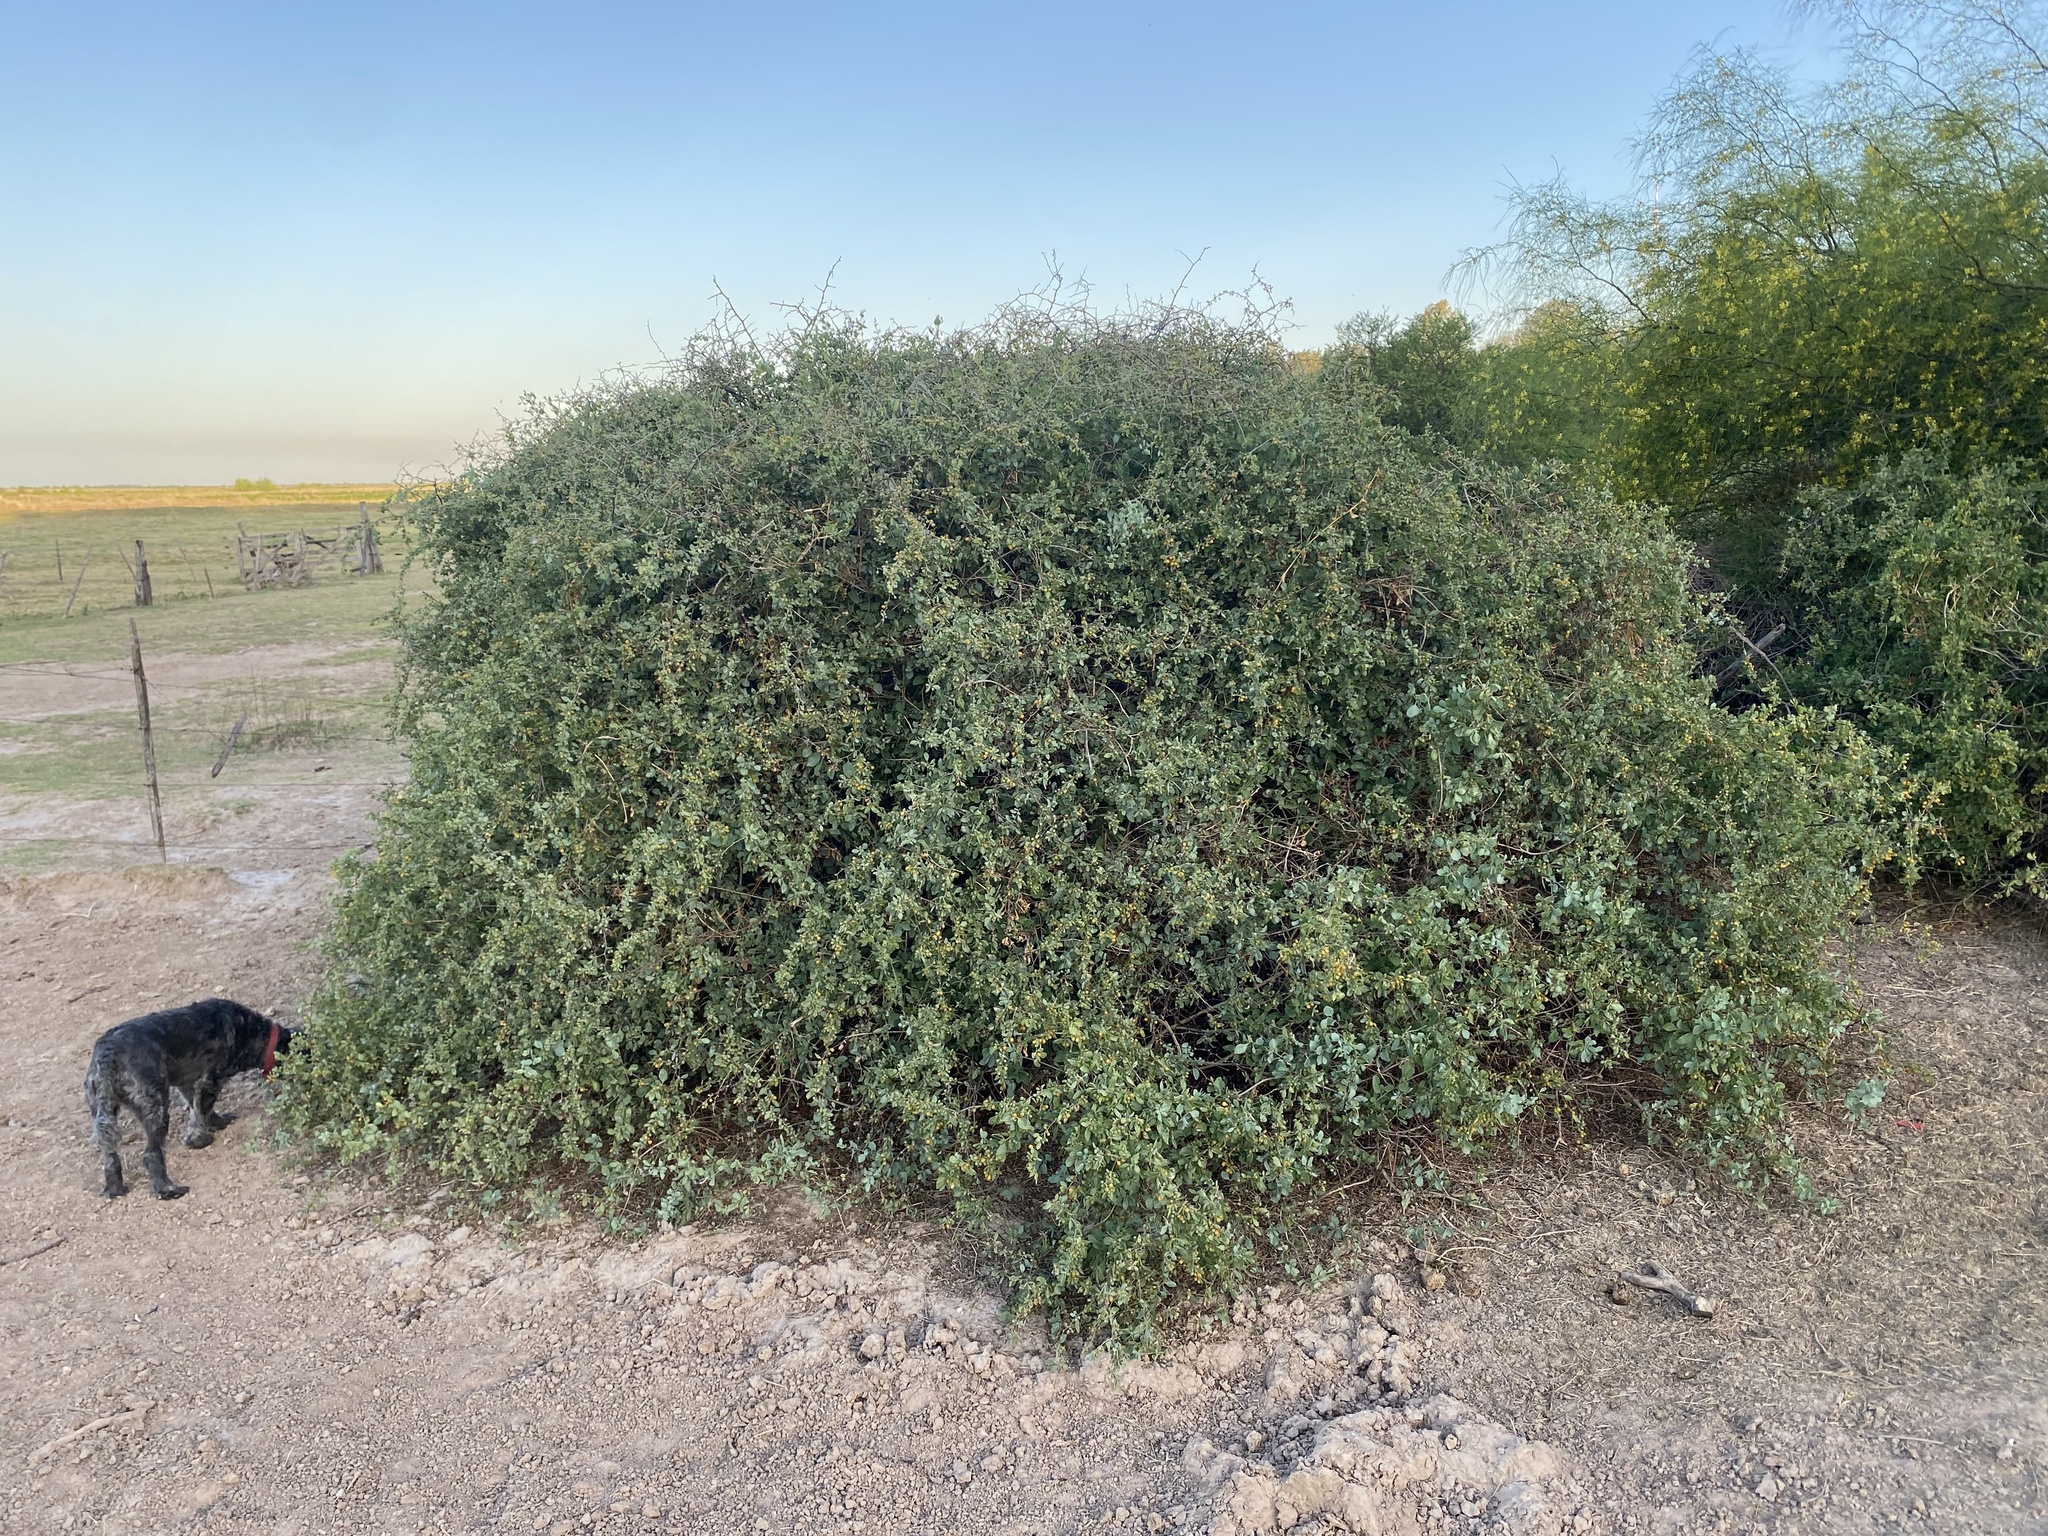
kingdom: Plantae
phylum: Tracheophyta
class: Magnoliopsida
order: Solanales
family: Solanaceae
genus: Lycium
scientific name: Lycium boerhaaviifolium
